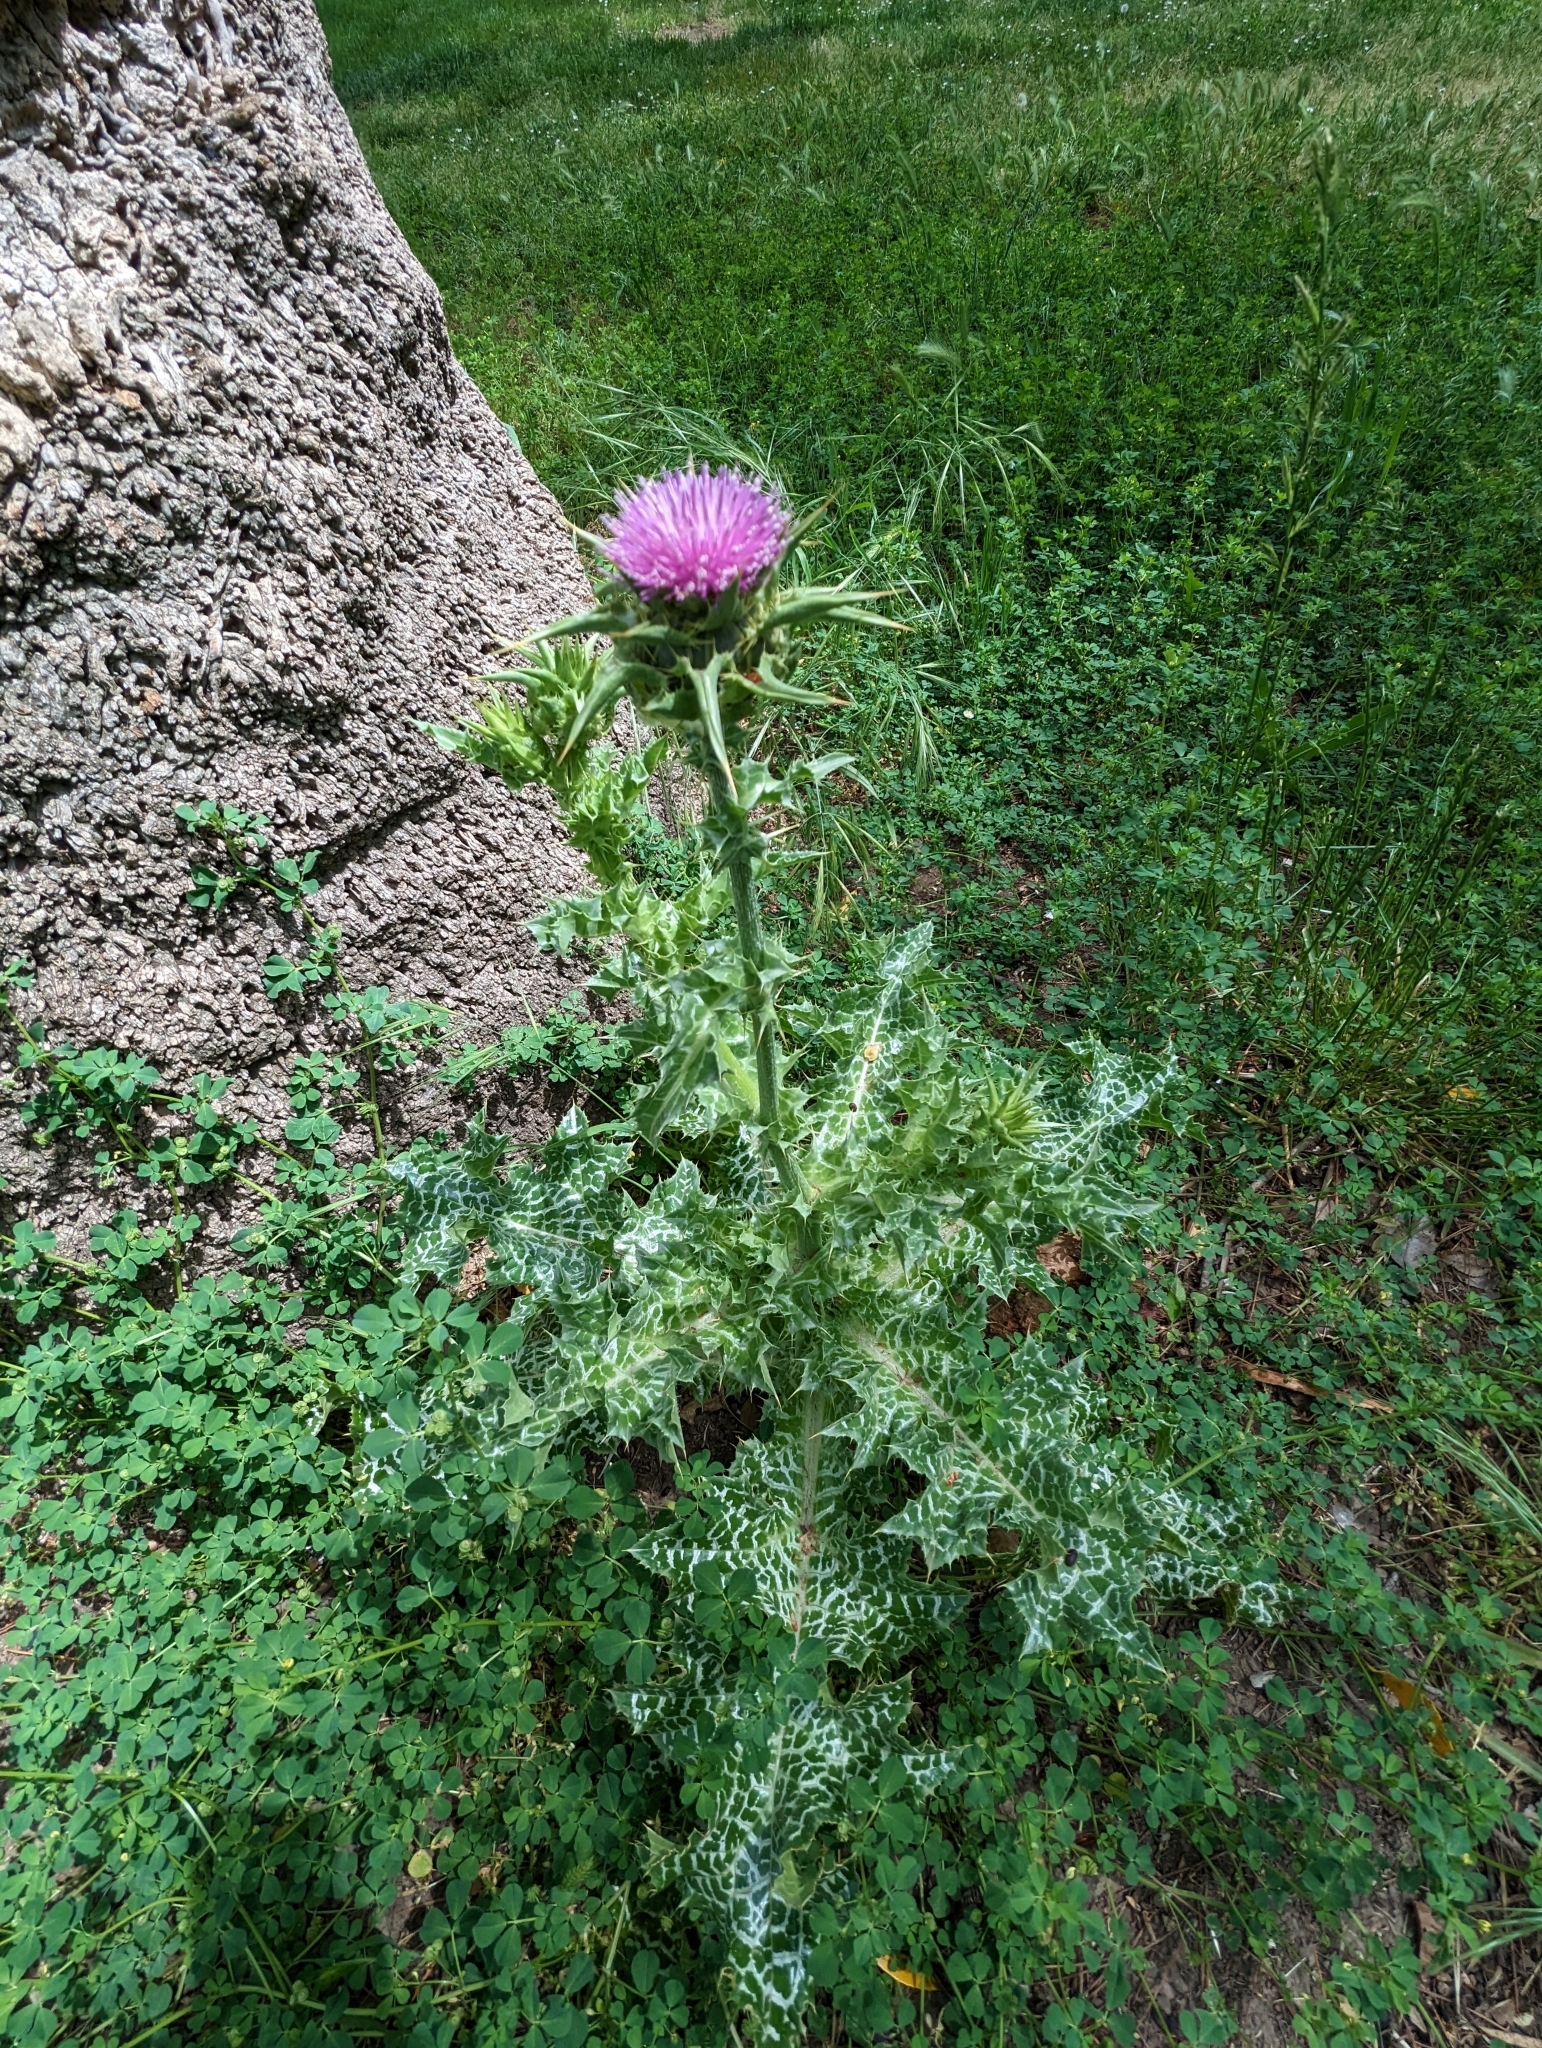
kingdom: Plantae
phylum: Tracheophyta
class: Magnoliopsida
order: Asterales
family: Asteraceae
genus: Silybum
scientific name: Silybum marianum
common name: Milk thistle
